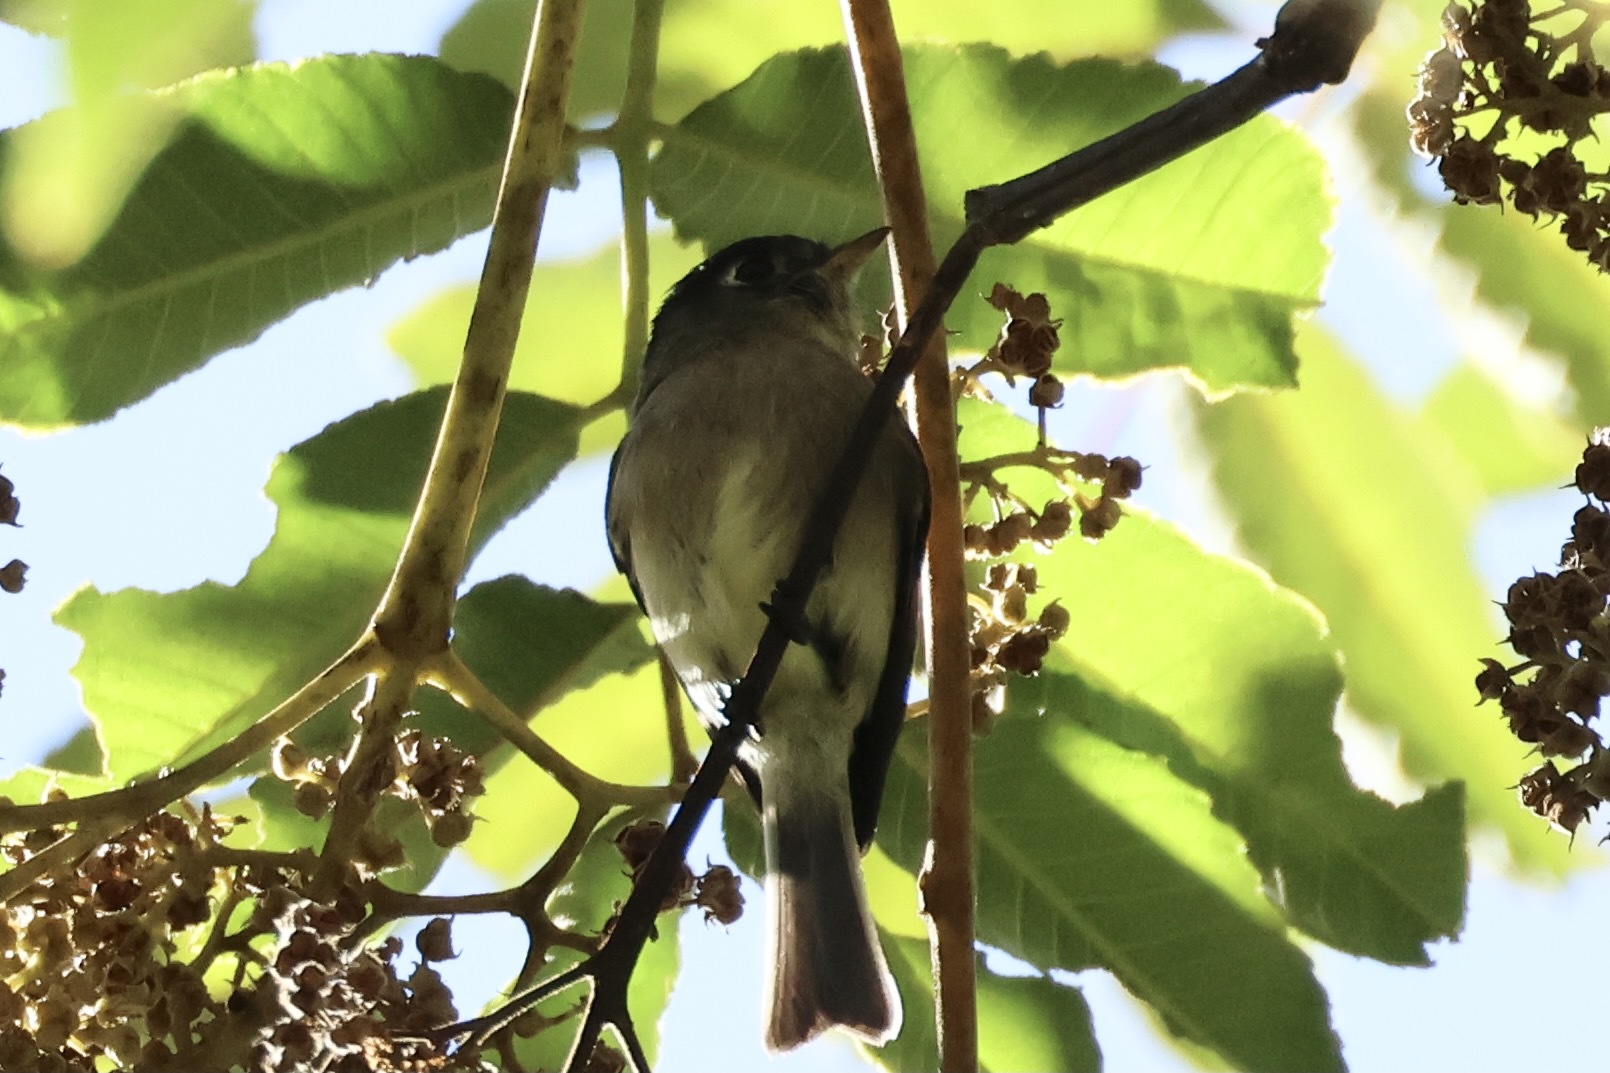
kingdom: Animalia
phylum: Chordata
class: Aves
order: Passeriformes
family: Tyrannidae
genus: Empidonax
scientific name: Empidonax atriceps
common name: Black-capped flycatcher
